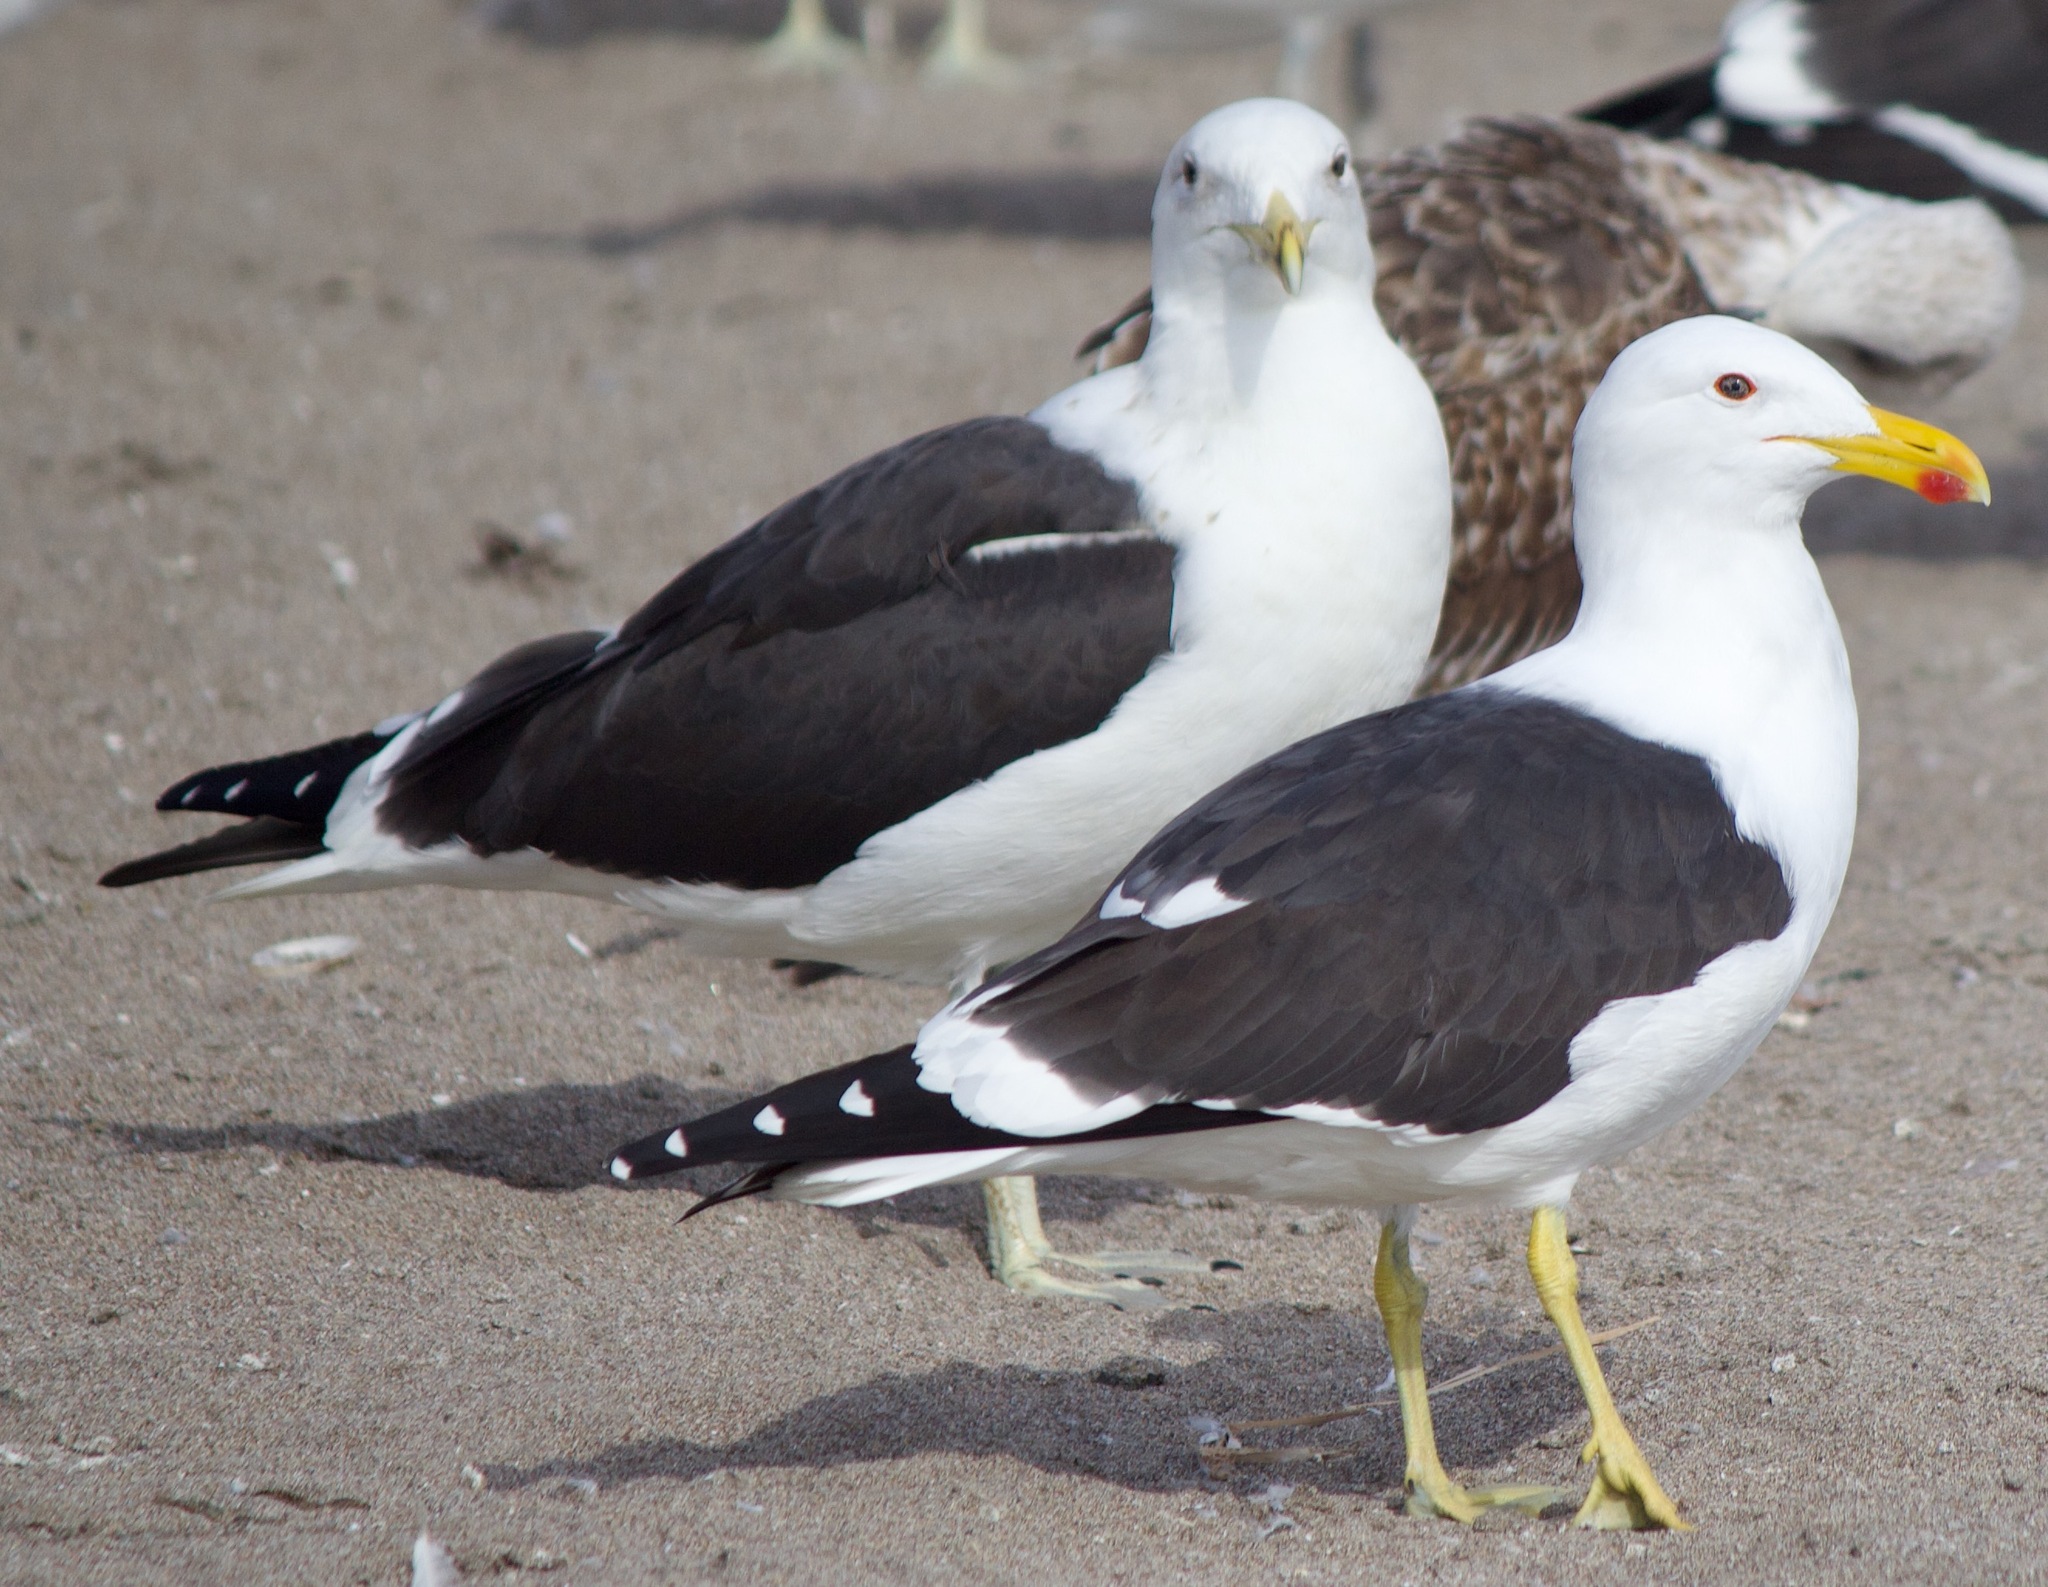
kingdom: Animalia
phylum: Chordata
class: Aves
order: Charadriiformes
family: Laridae
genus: Larus
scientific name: Larus dominicanus
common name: Kelp gull
